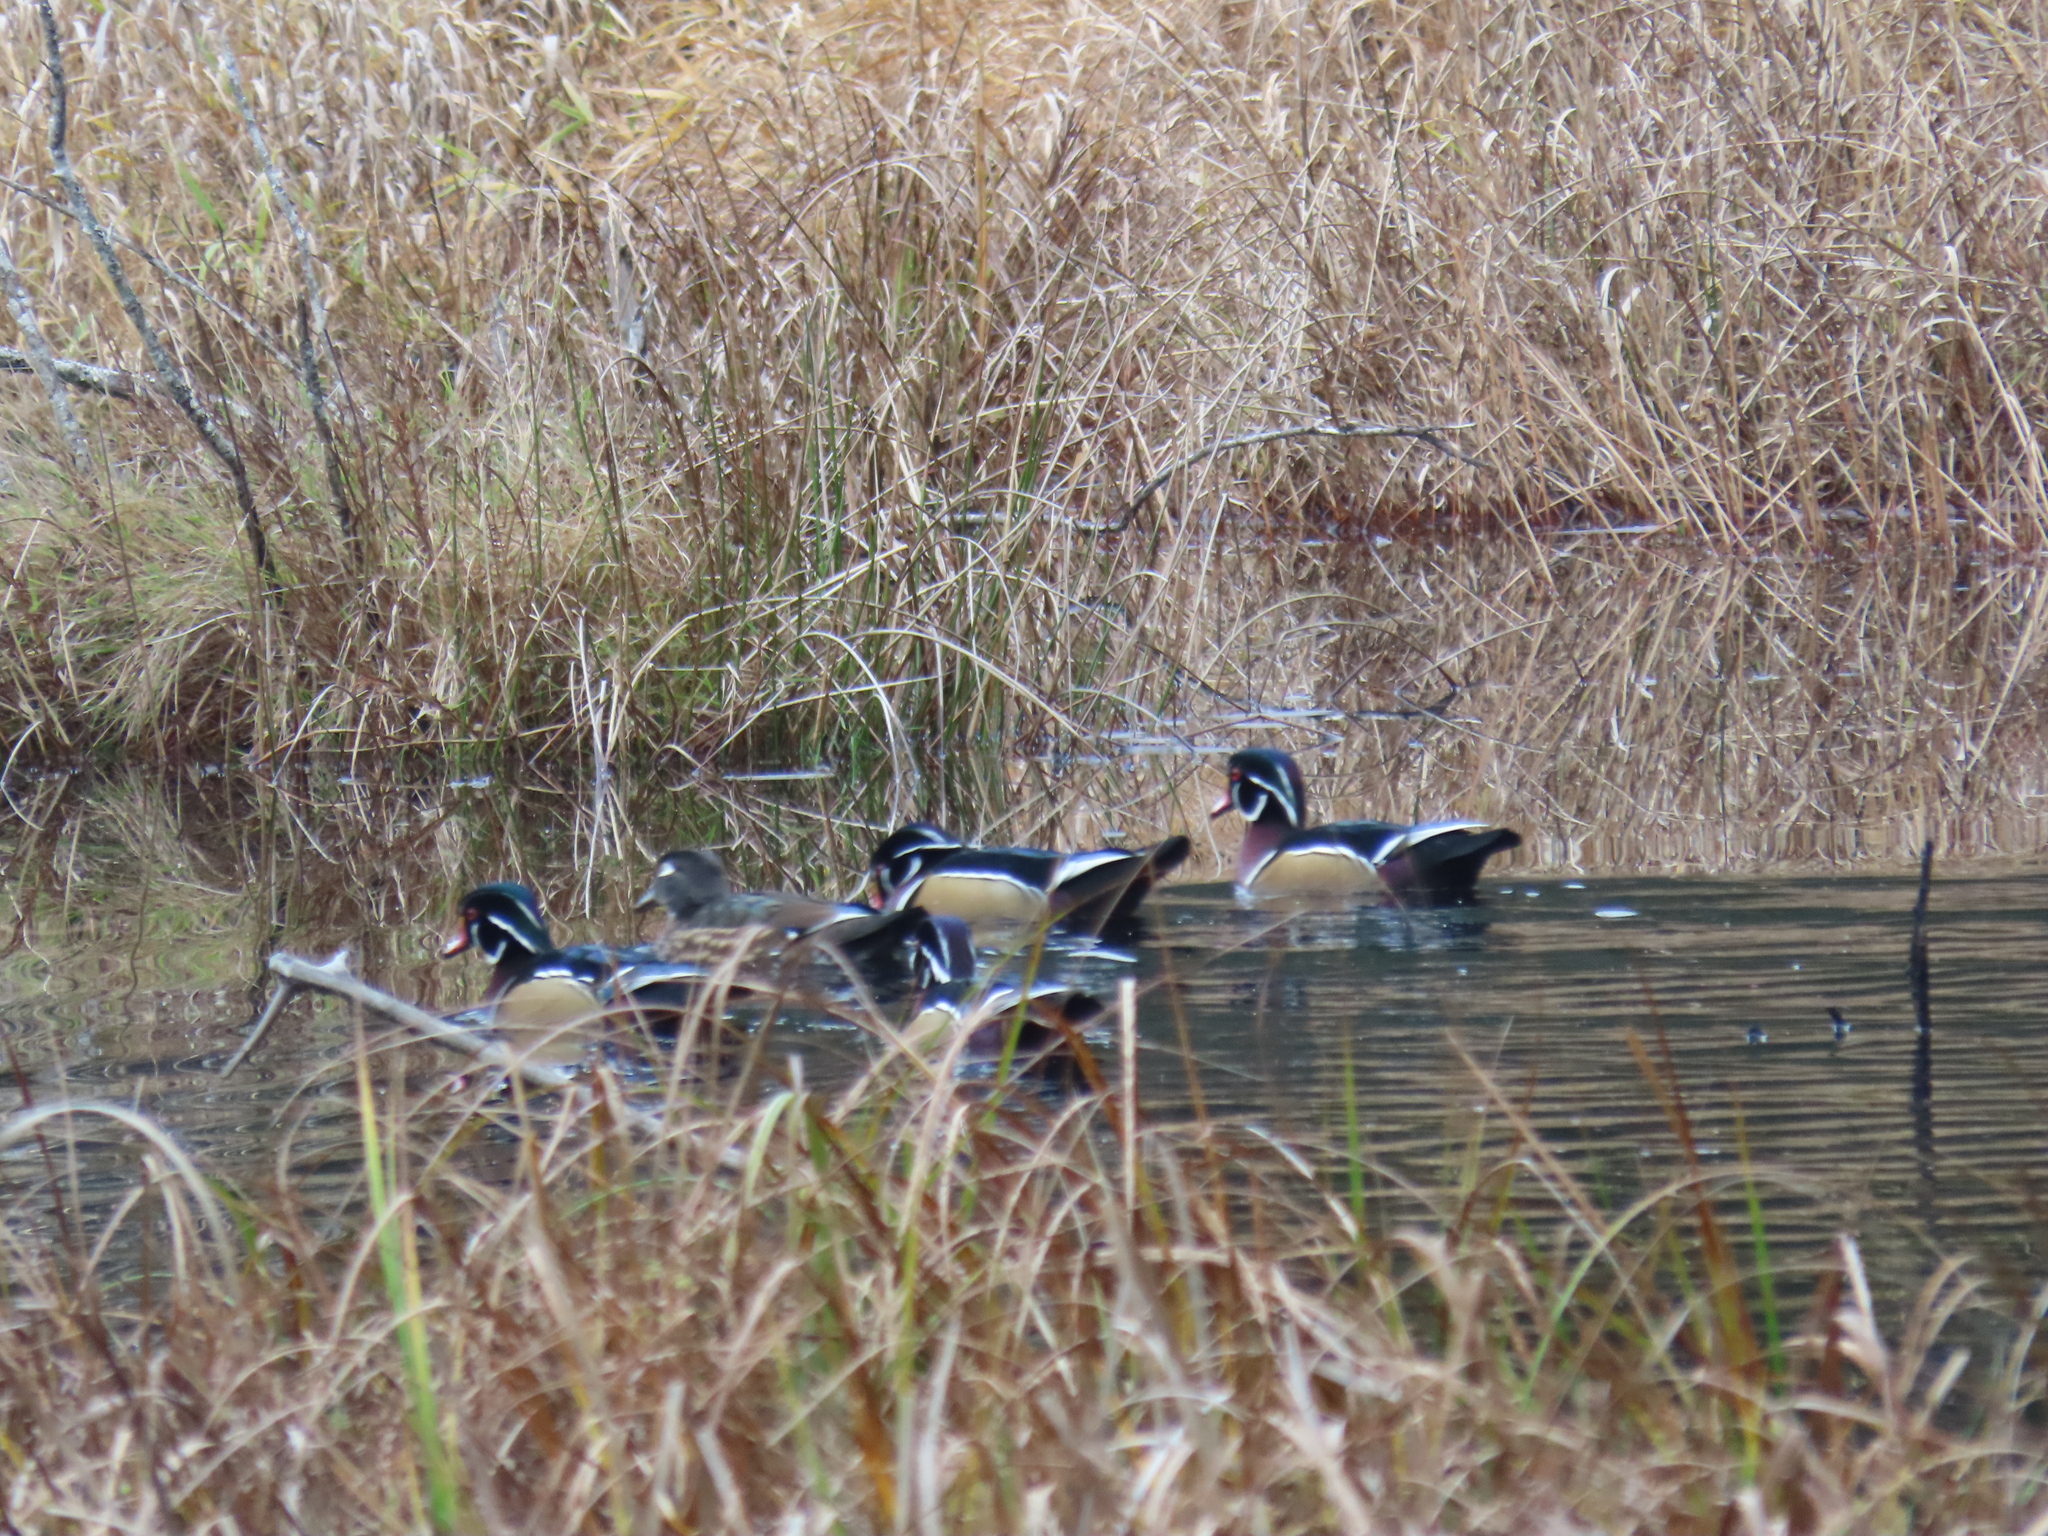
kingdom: Animalia
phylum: Chordata
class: Aves
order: Anseriformes
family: Anatidae
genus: Aix
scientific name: Aix sponsa
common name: Wood duck
